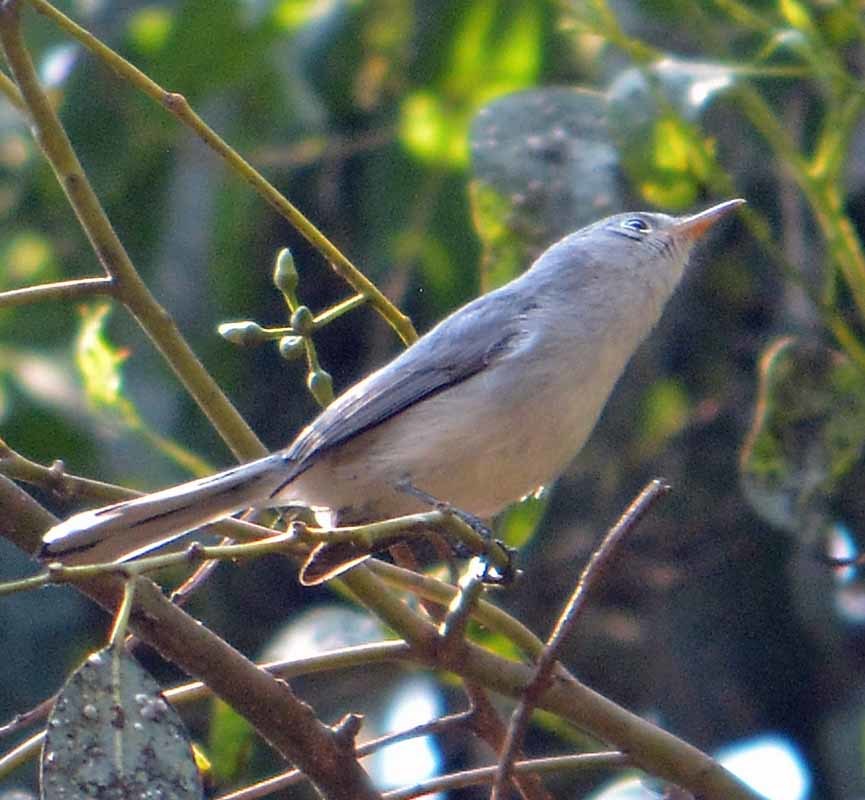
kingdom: Animalia
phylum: Chordata
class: Aves
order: Passeriformes
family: Polioptilidae
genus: Polioptila
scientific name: Polioptila caerulea
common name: Blue-gray gnatcatcher
